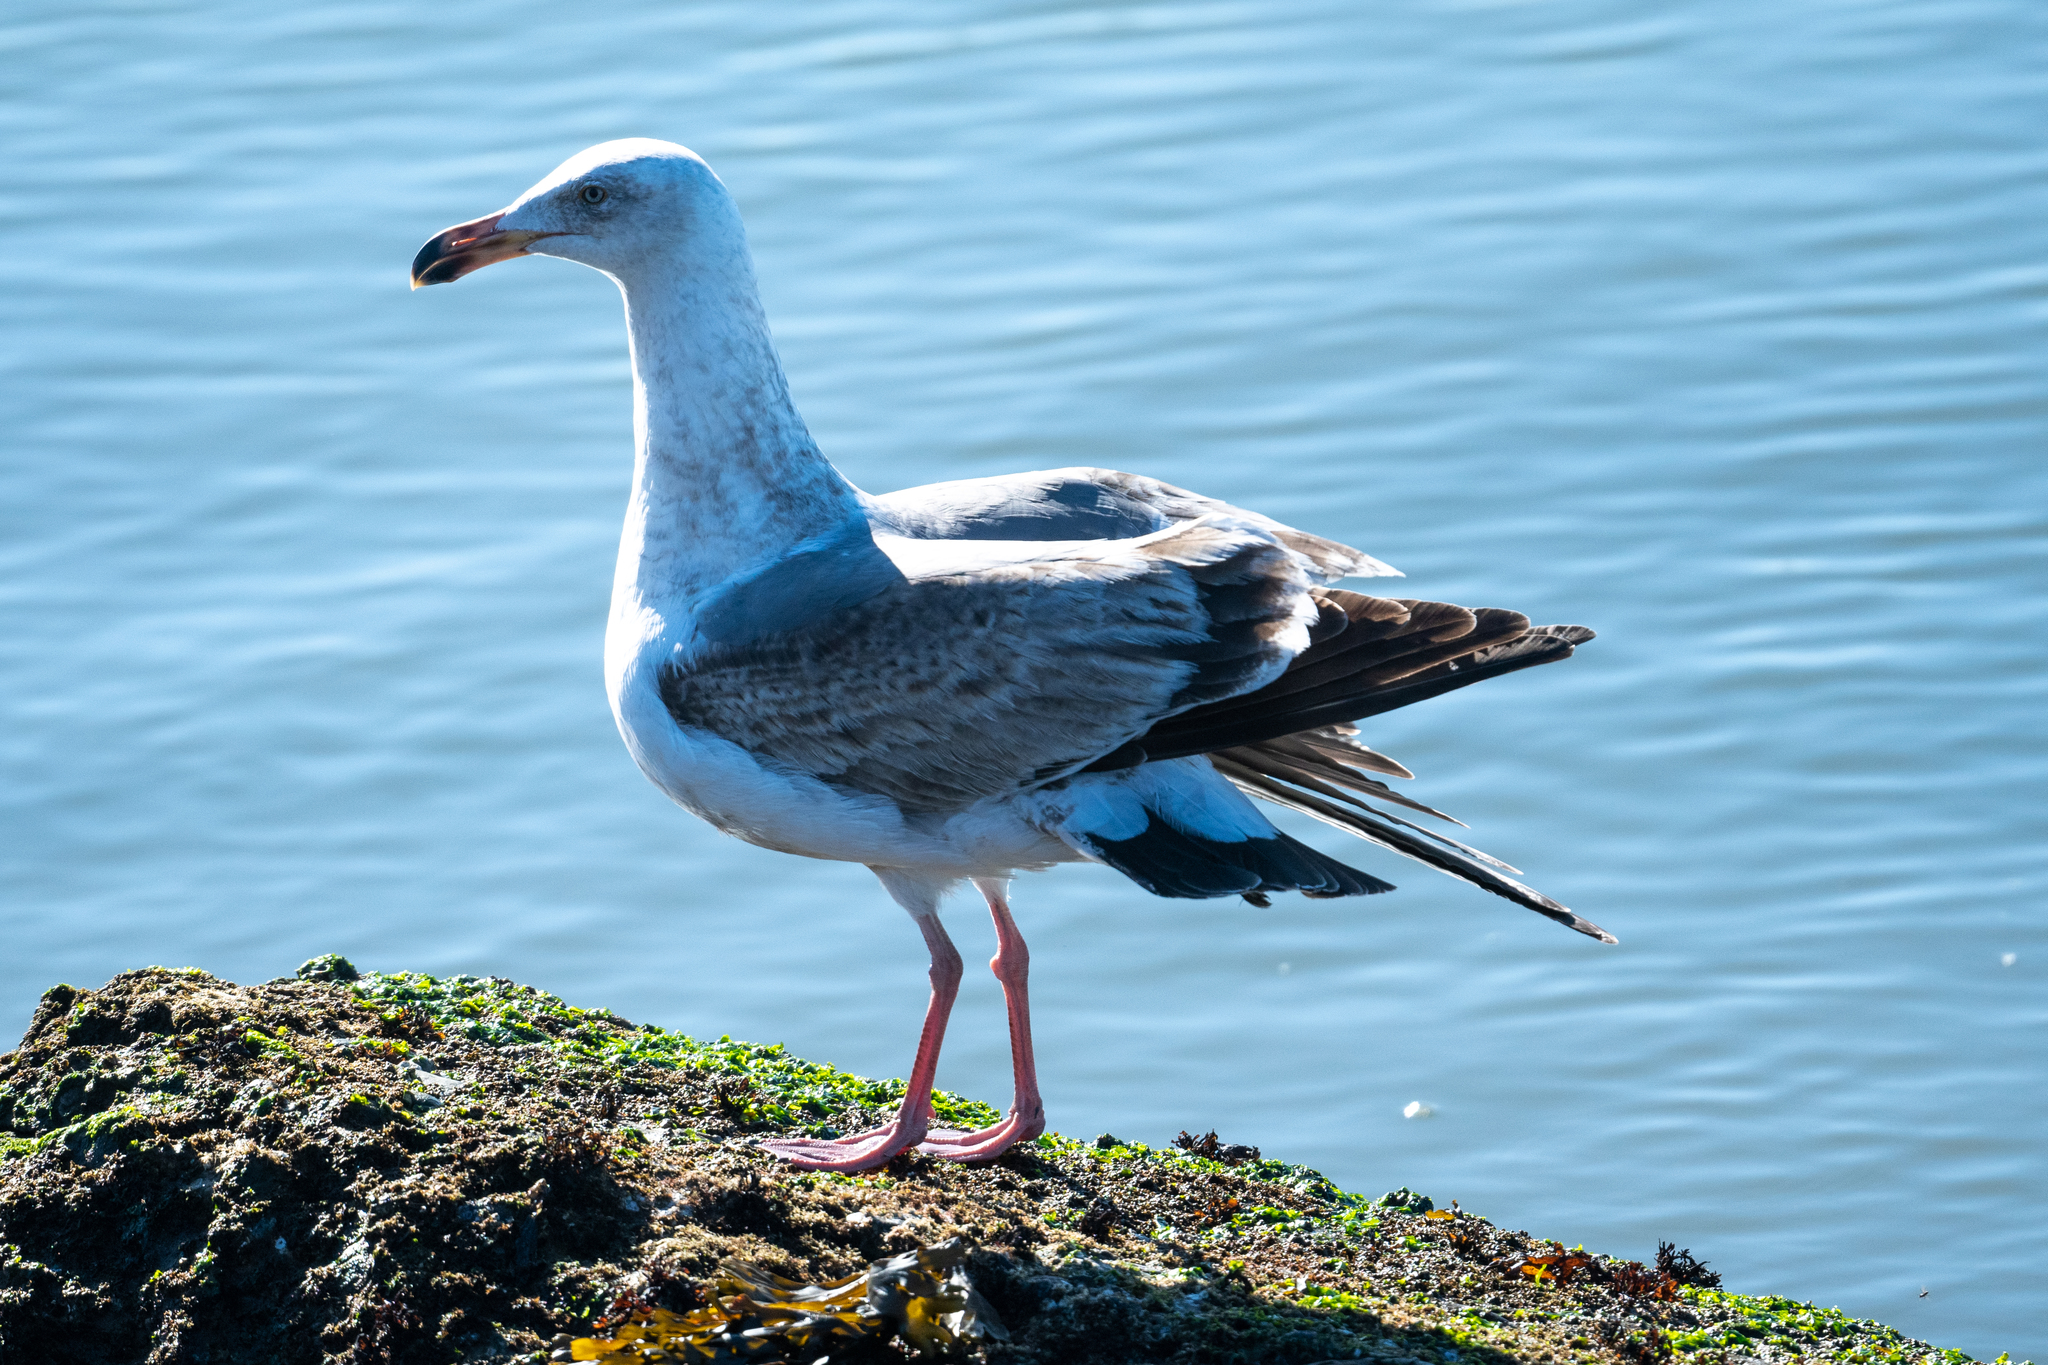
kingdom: Animalia
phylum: Chordata
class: Aves
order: Charadriiformes
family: Laridae
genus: Larus
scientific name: Larus occidentalis
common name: Western gull
